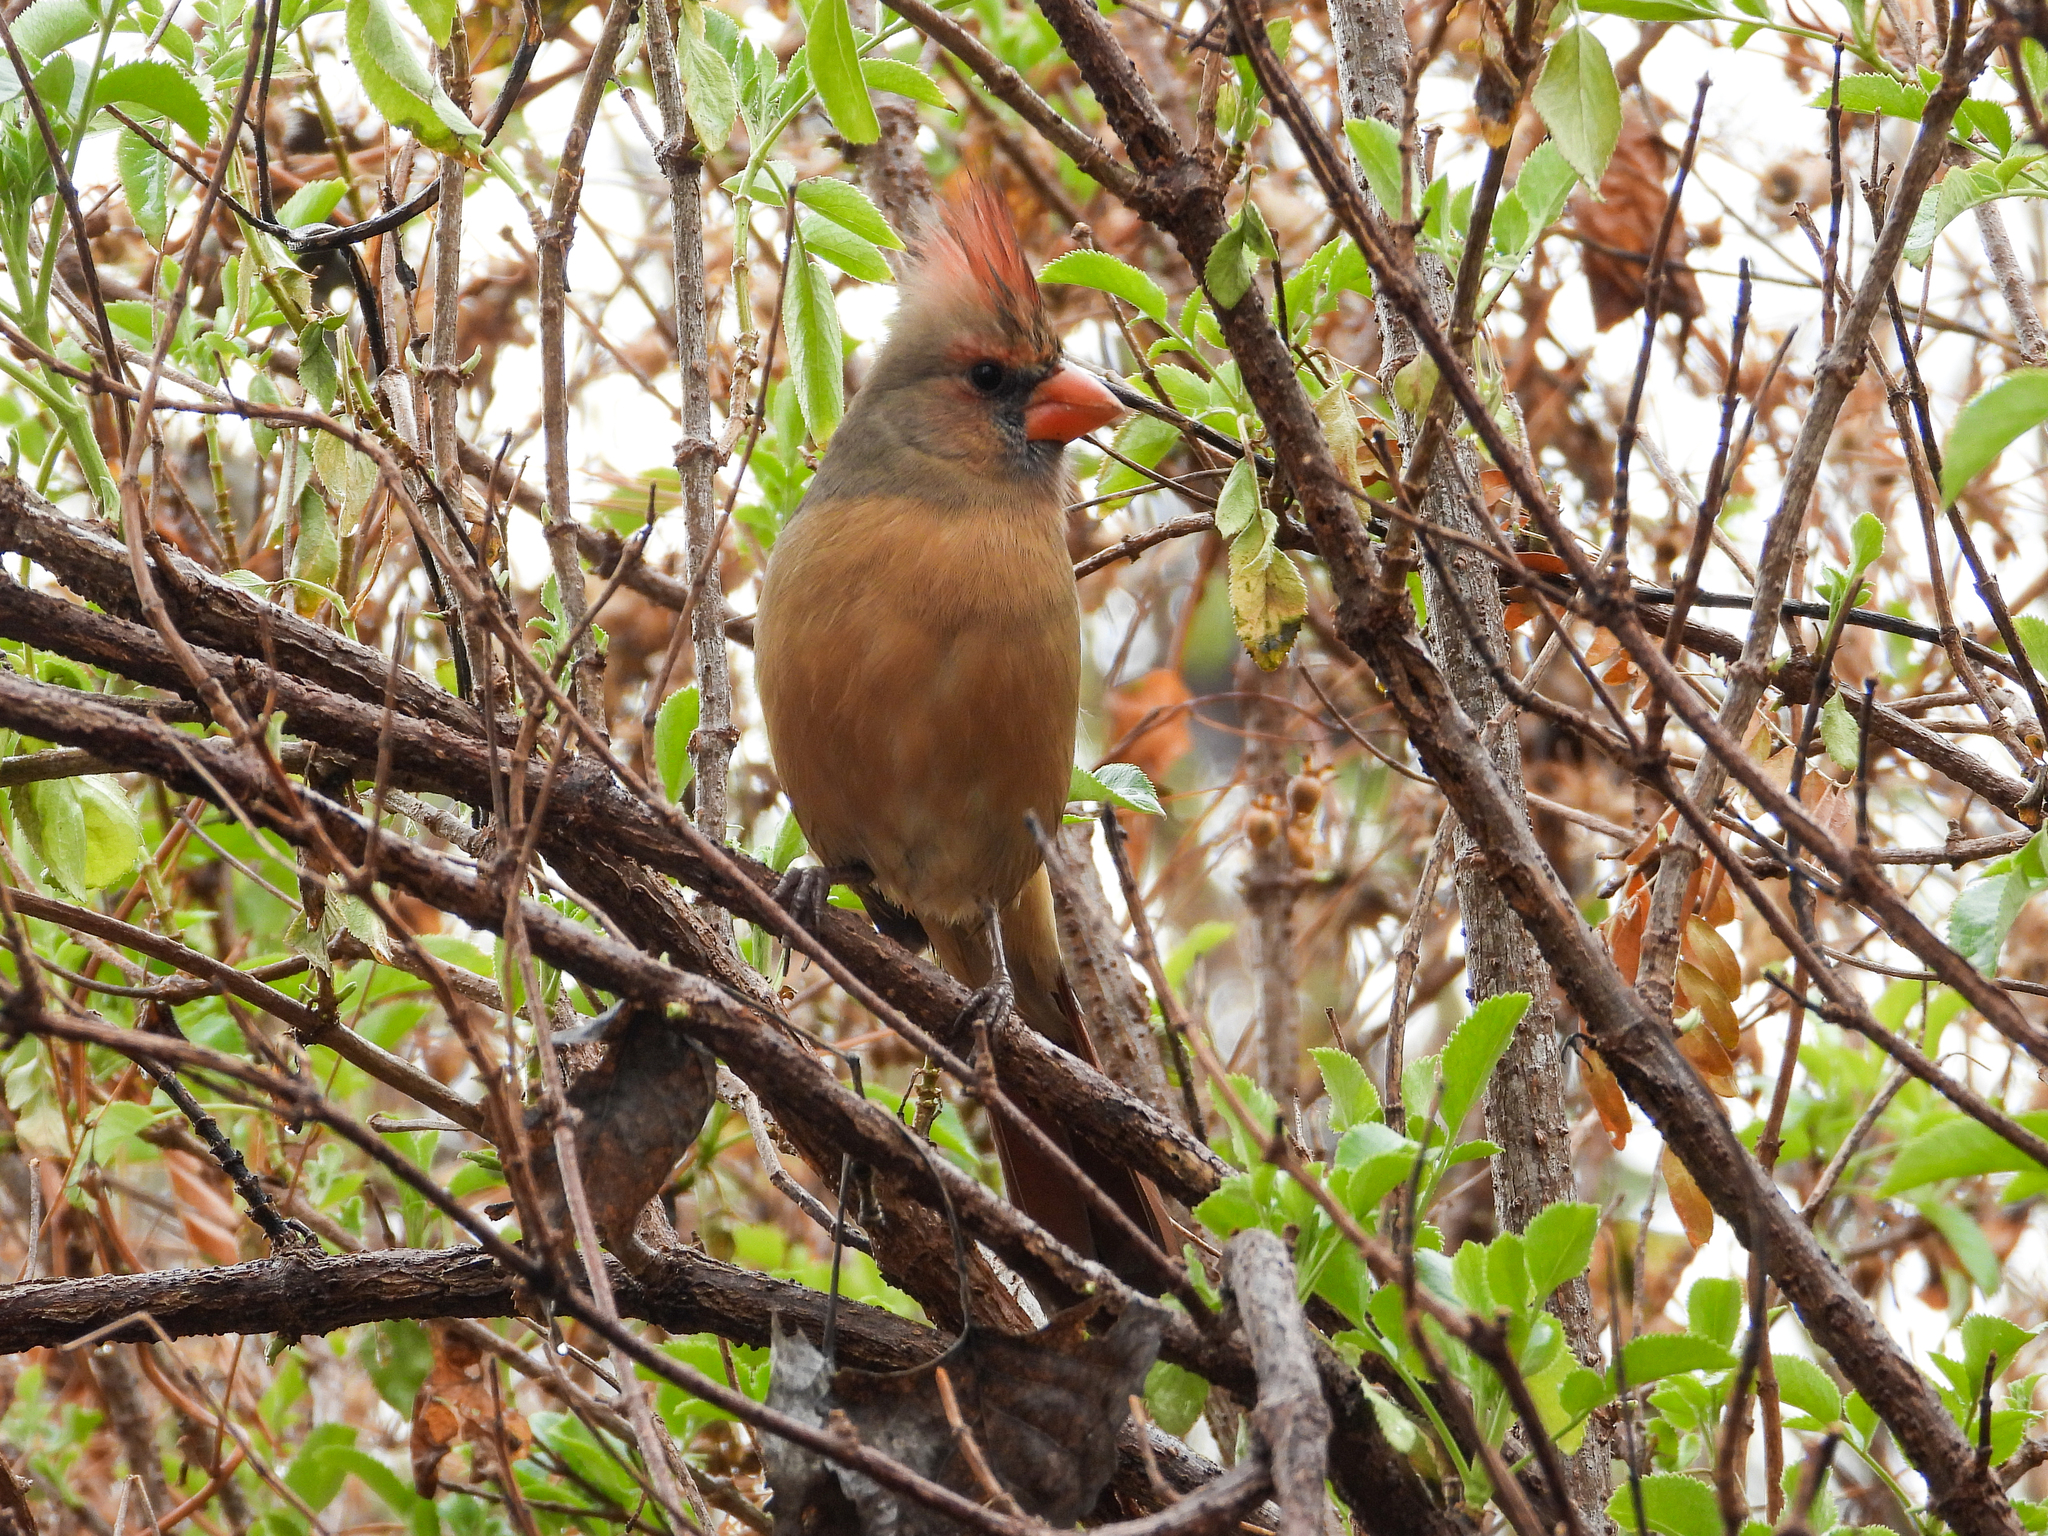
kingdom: Animalia
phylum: Chordata
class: Aves
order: Passeriformes
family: Cardinalidae
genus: Cardinalis
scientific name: Cardinalis cardinalis
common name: Northern cardinal
